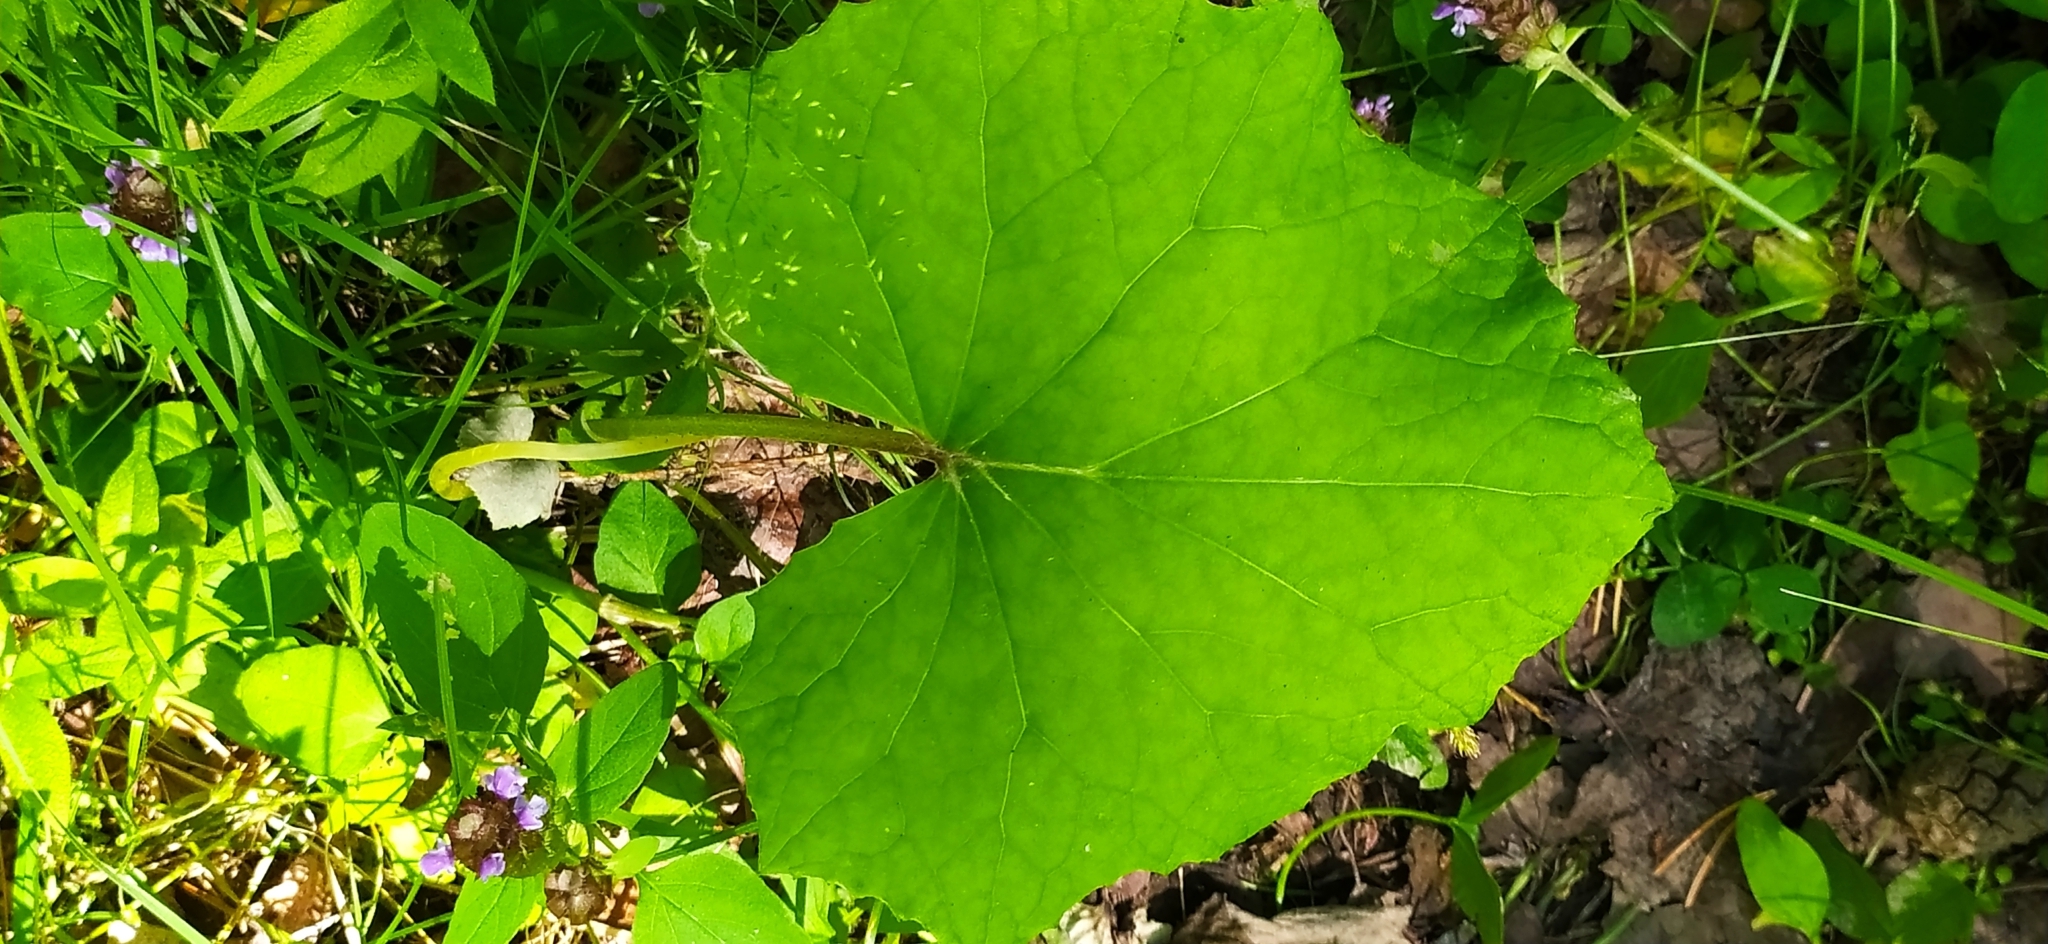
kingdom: Plantae
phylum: Tracheophyta
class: Magnoliopsida
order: Asterales
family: Asteraceae
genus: Tussilago
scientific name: Tussilago farfara
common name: Coltsfoot
